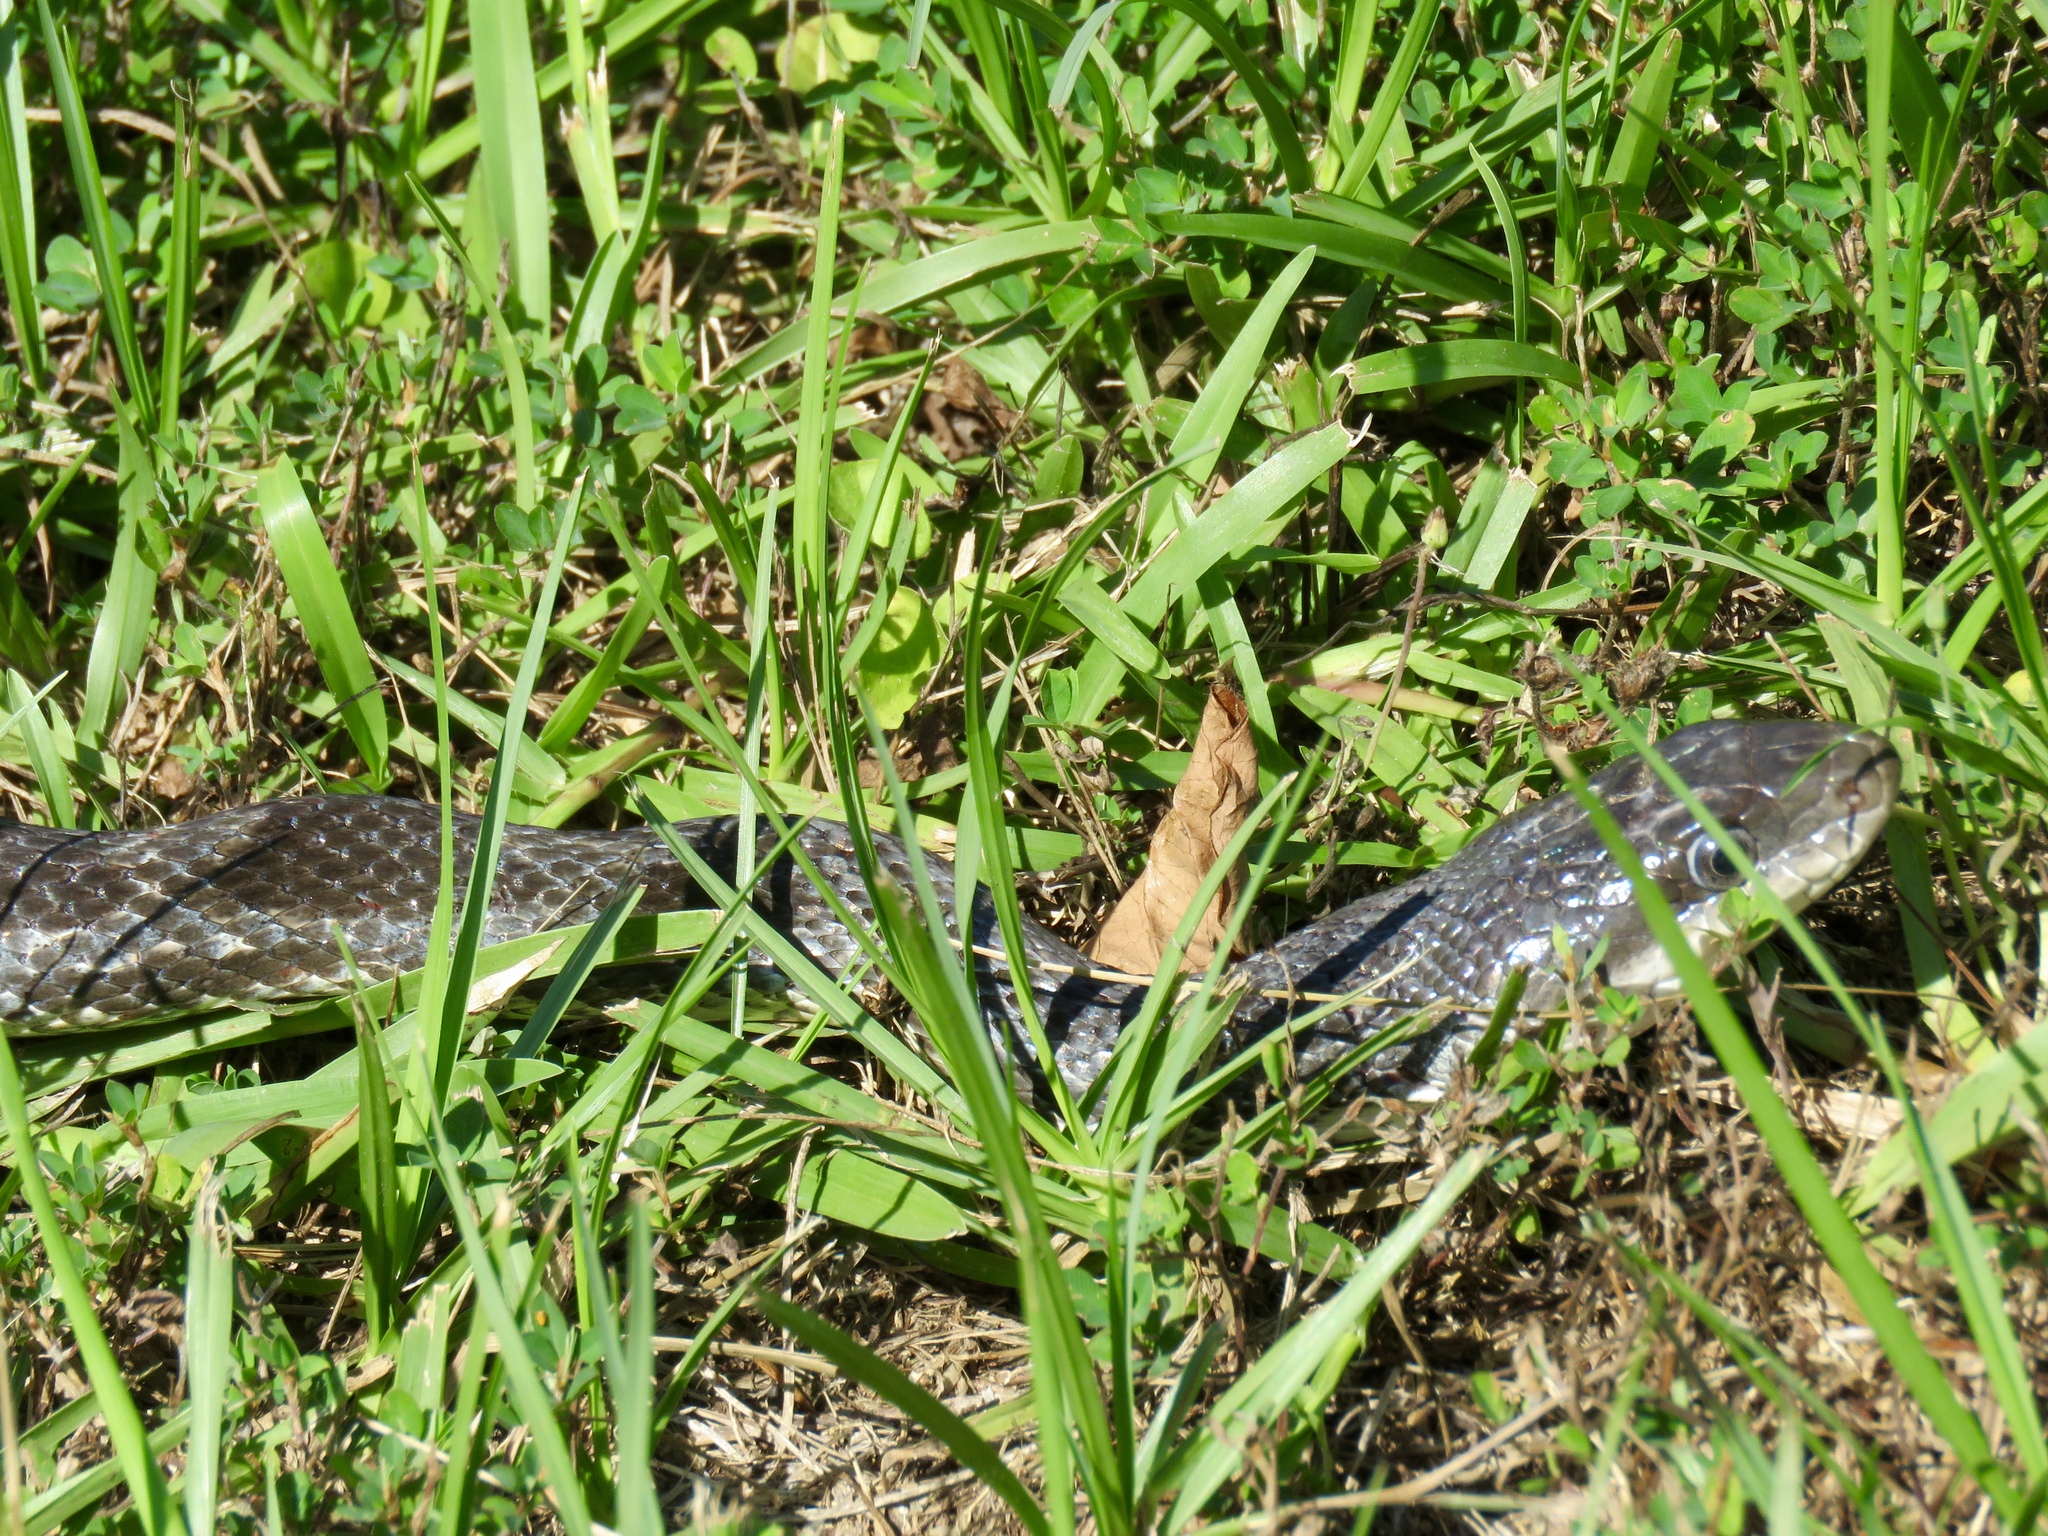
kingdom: Animalia
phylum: Chordata
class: Squamata
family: Colubridae
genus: Pantherophis
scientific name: Pantherophis obsoletus
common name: Black rat snake
